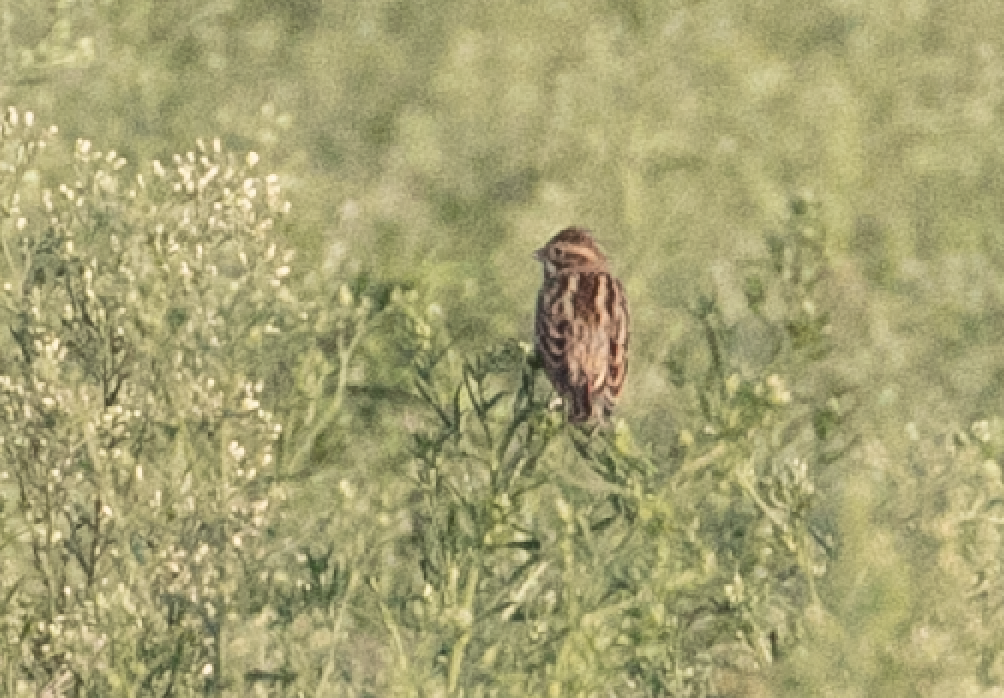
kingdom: Animalia
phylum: Chordata
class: Aves
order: Passeriformes
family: Emberizidae
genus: Emberiza
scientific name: Emberiza schoeniclus
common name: Reed bunting
